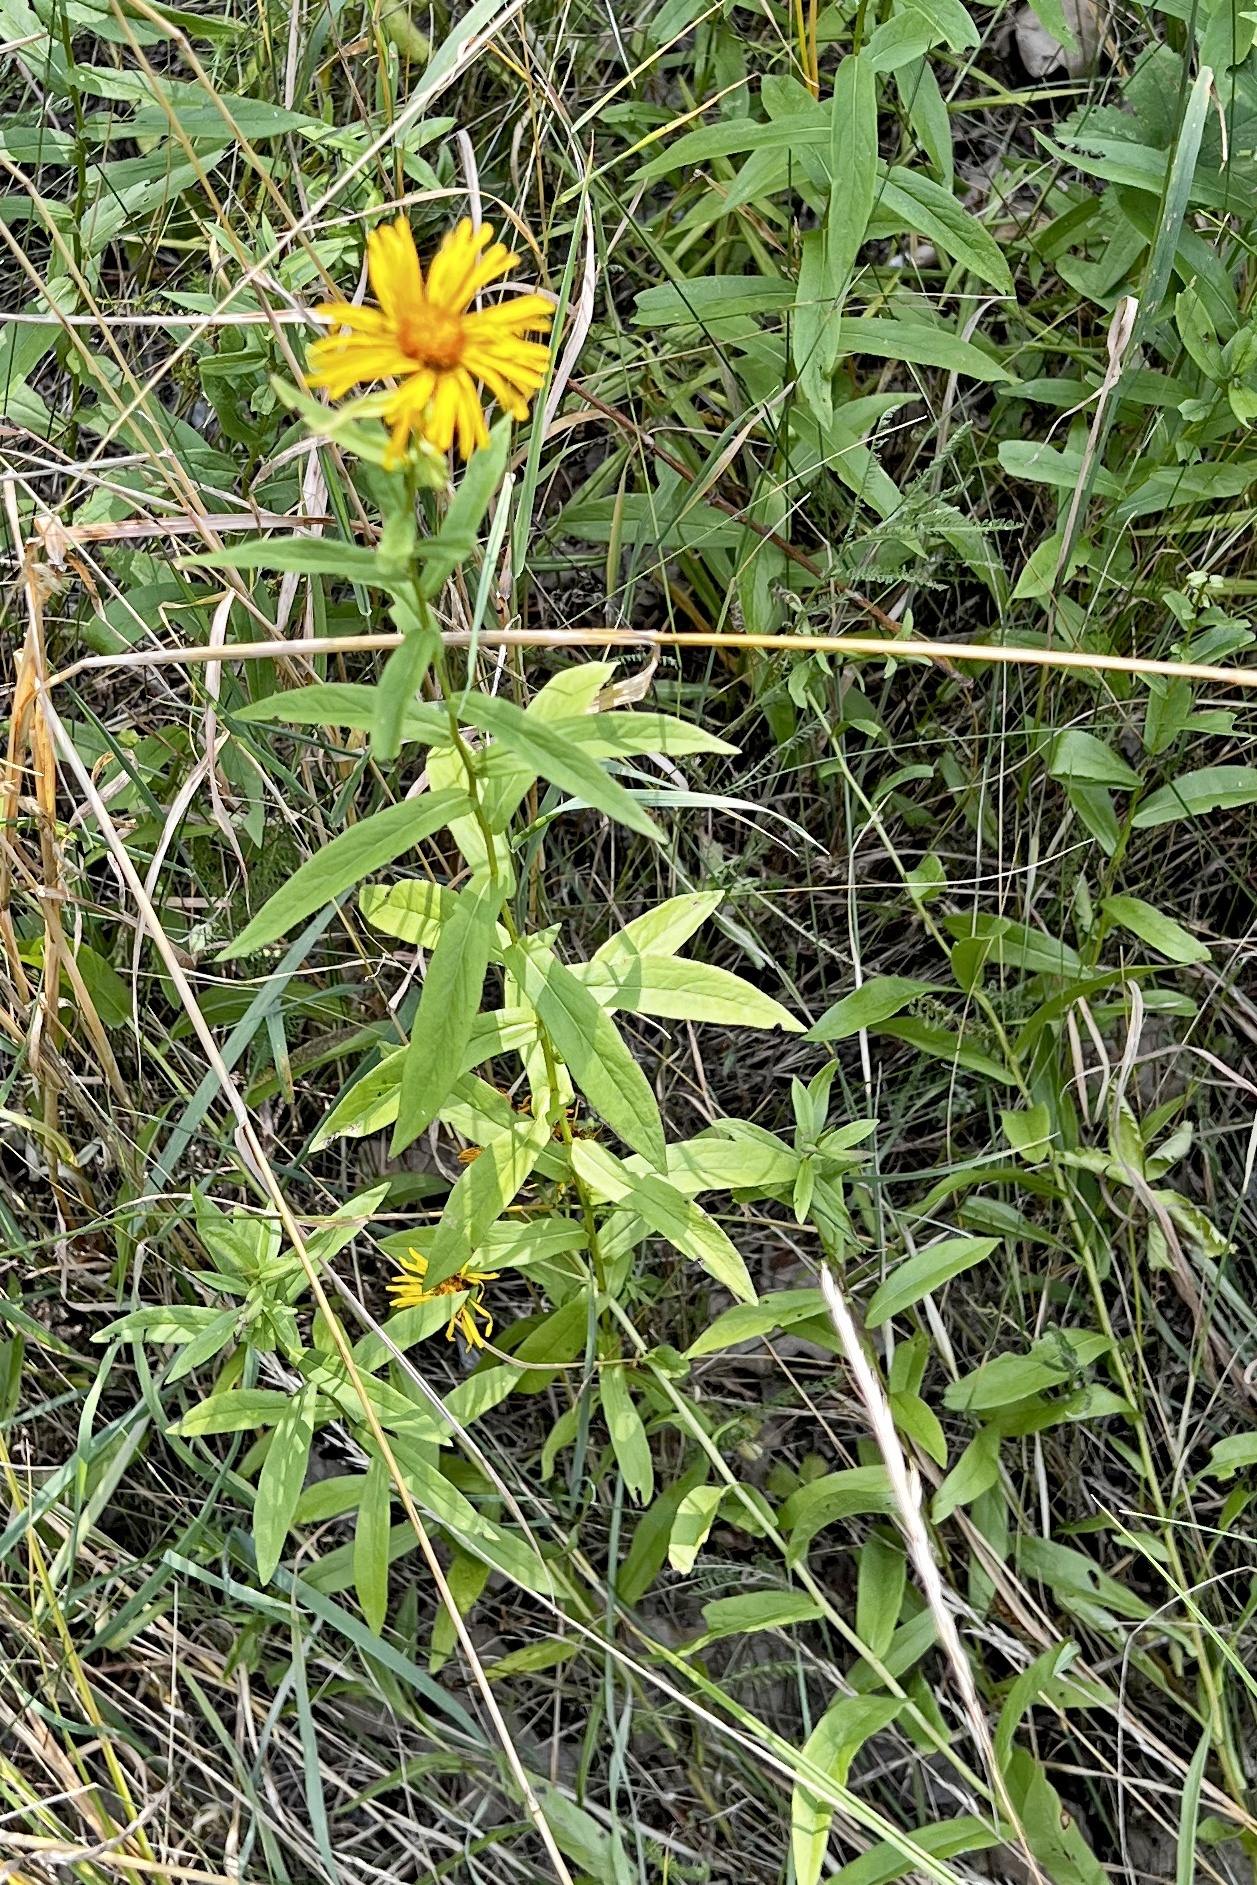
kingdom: Plantae
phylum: Tracheophyta
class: Magnoliopsida
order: Asterales
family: Asteraceae
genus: Pentanema
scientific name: Pentanema salicinum
